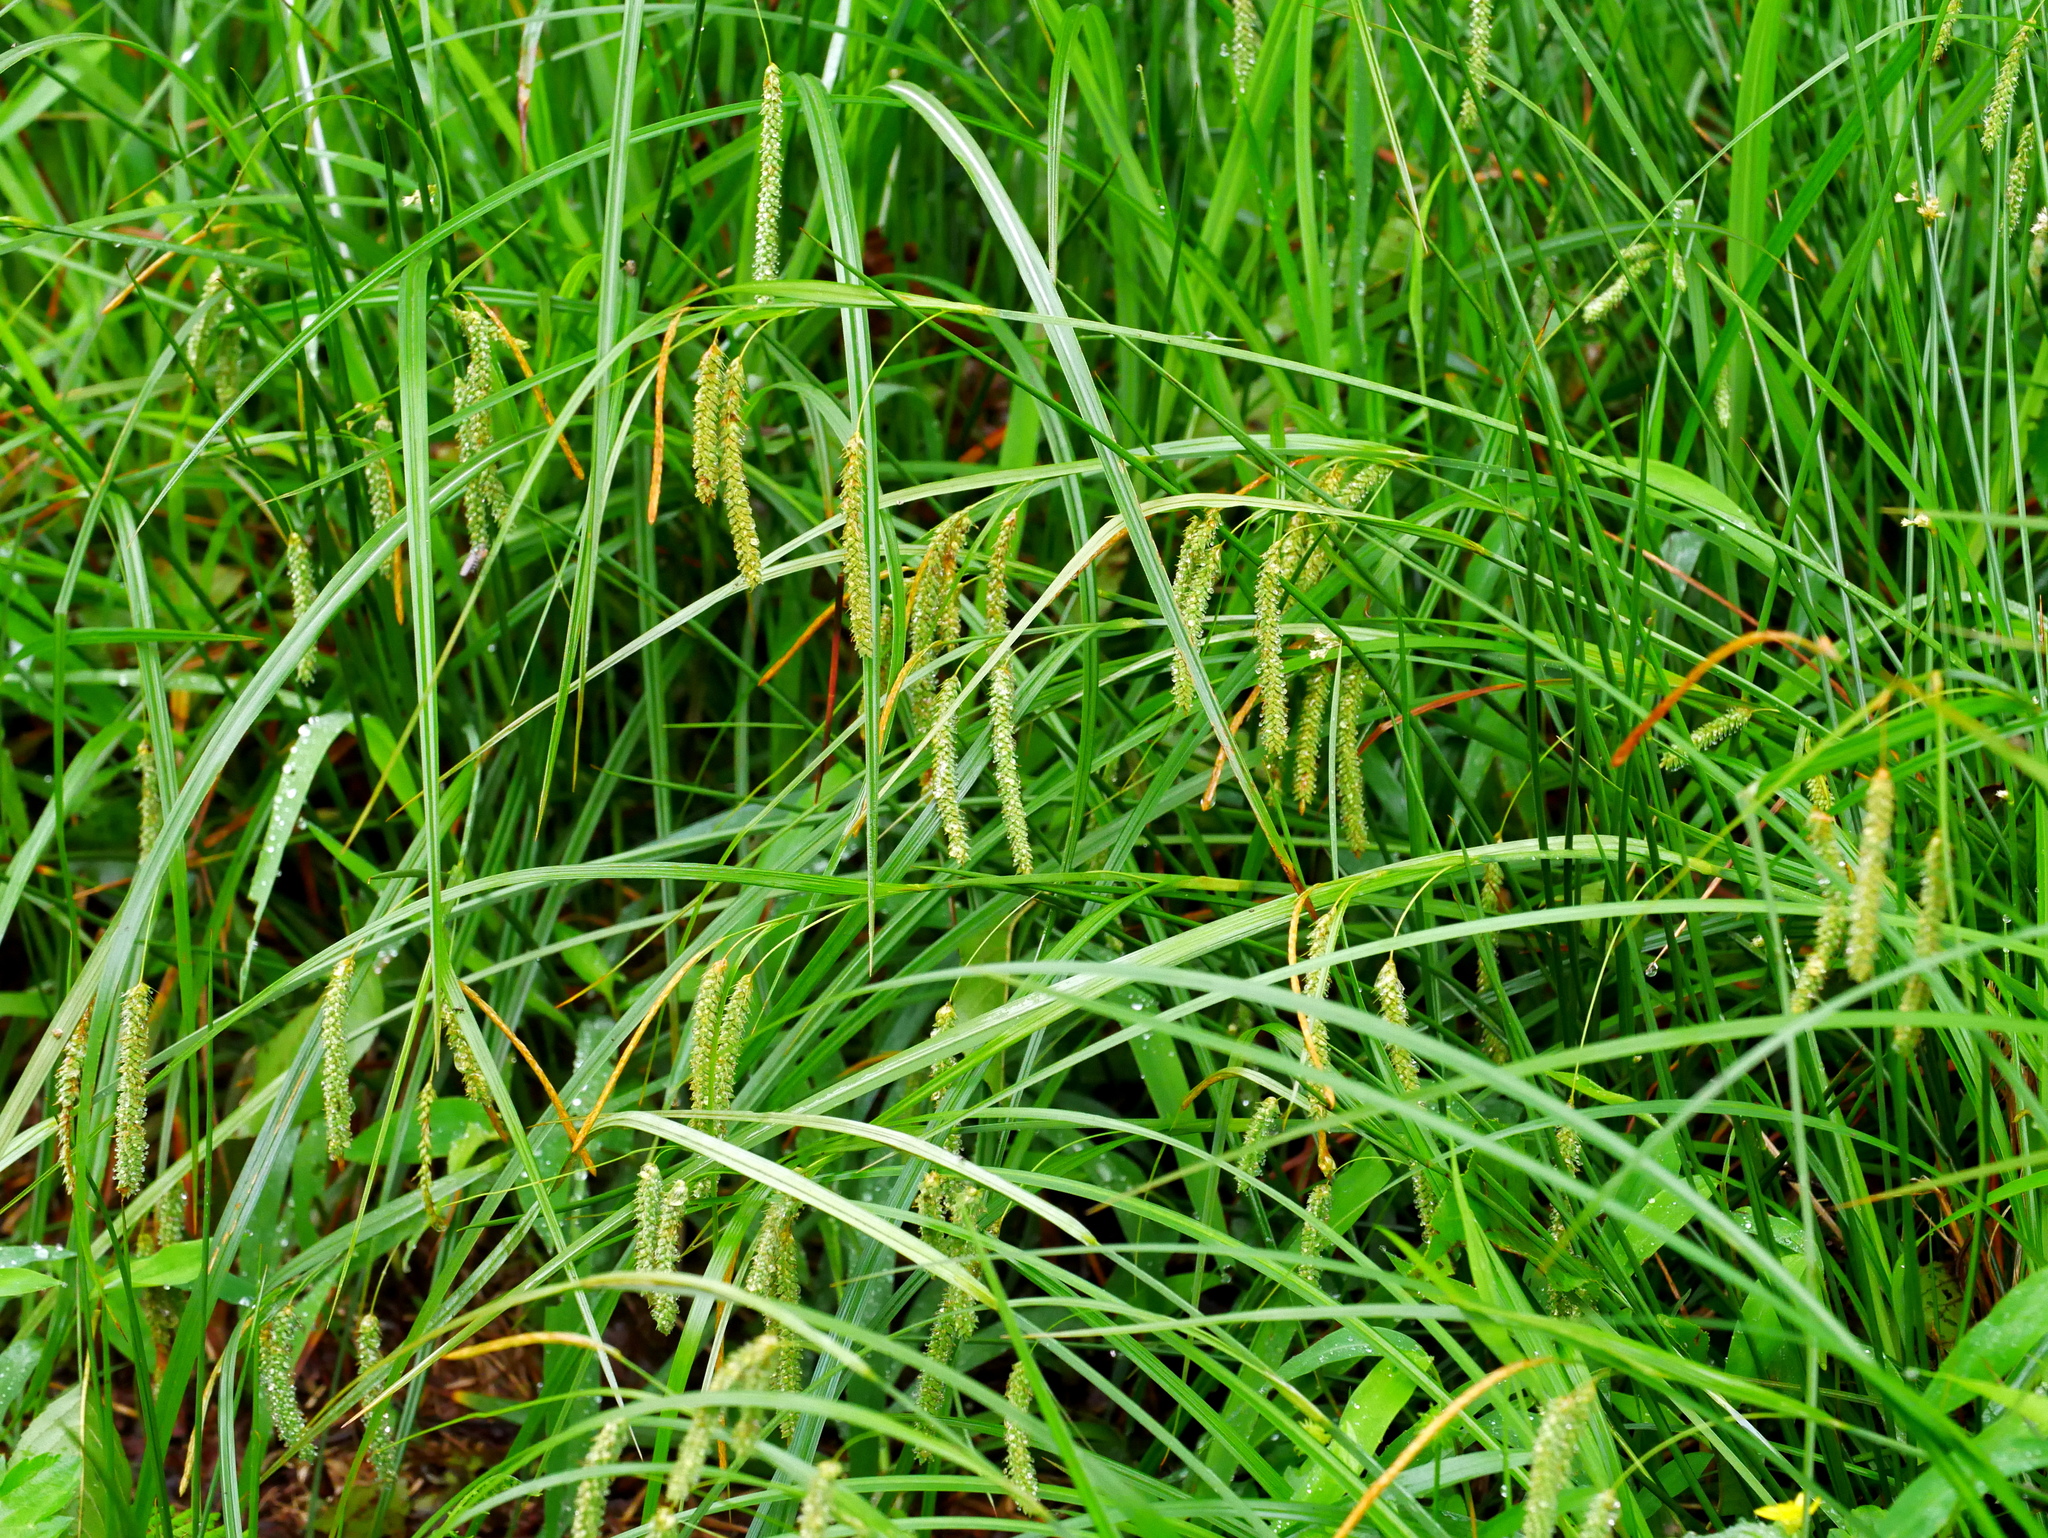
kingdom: Plantae
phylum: Tracheophyta
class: Liliopsida
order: Poales
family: Cyperaceae
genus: Carex
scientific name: Carex phacota
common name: Lakeshore sedge
